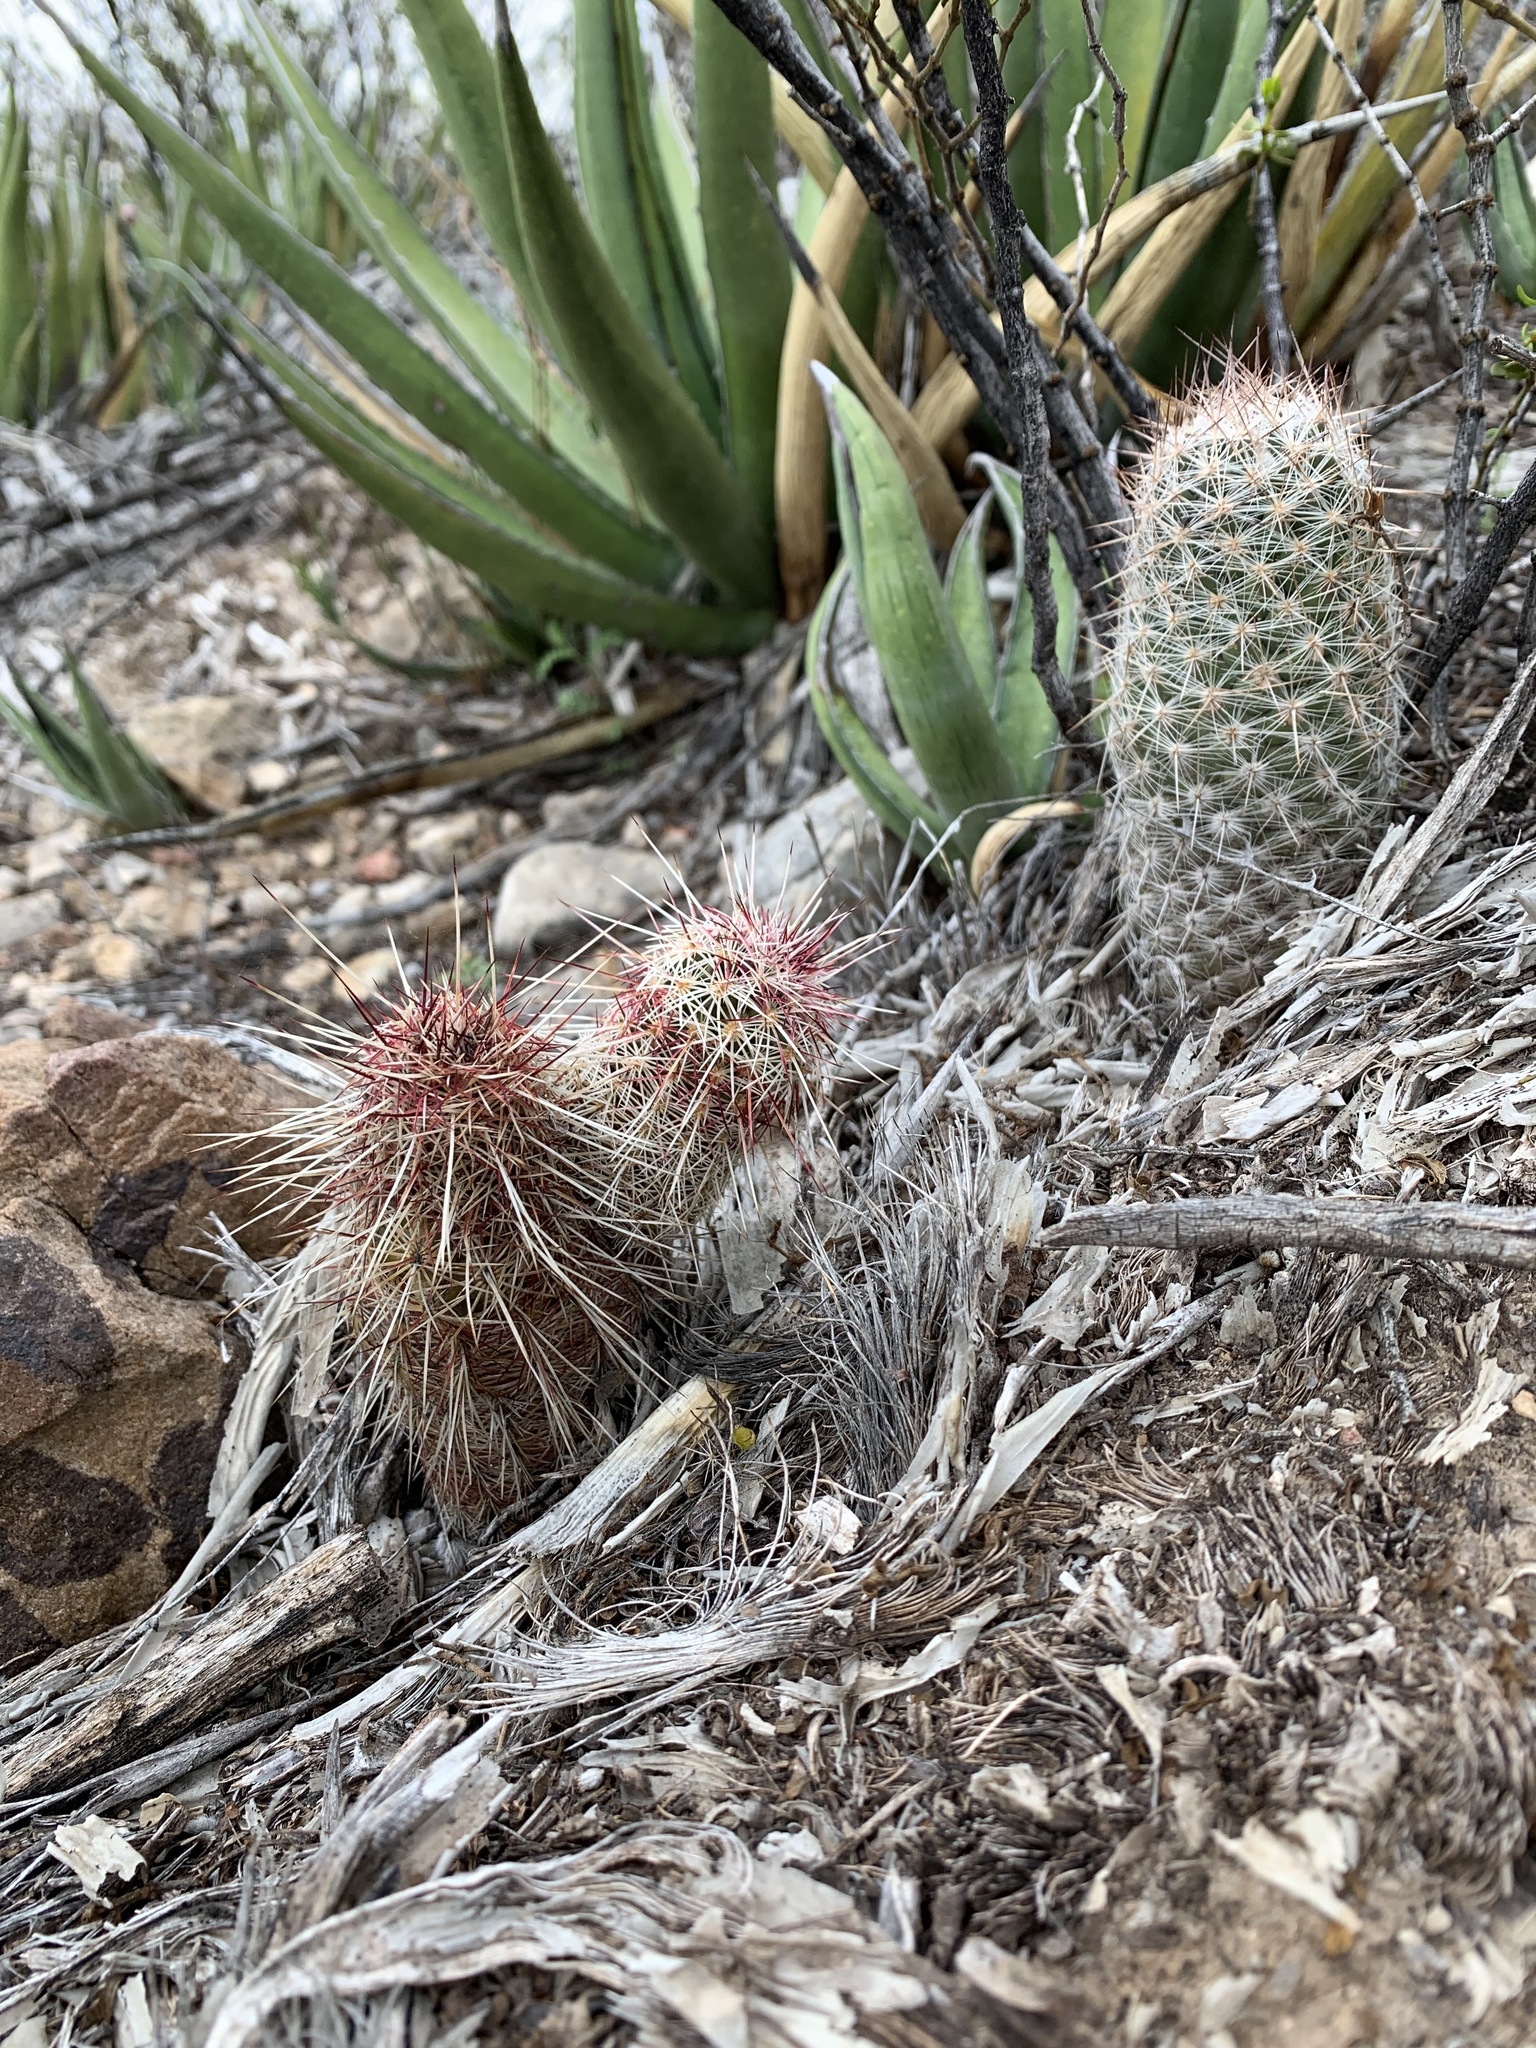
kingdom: Plantae
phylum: Tracheophyta
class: Magnoliopsida
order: Caryophyllales
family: Cactaceae
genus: Echinocereus
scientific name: Echinocereus viridiflorus
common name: Nylon hedgehog cactus
